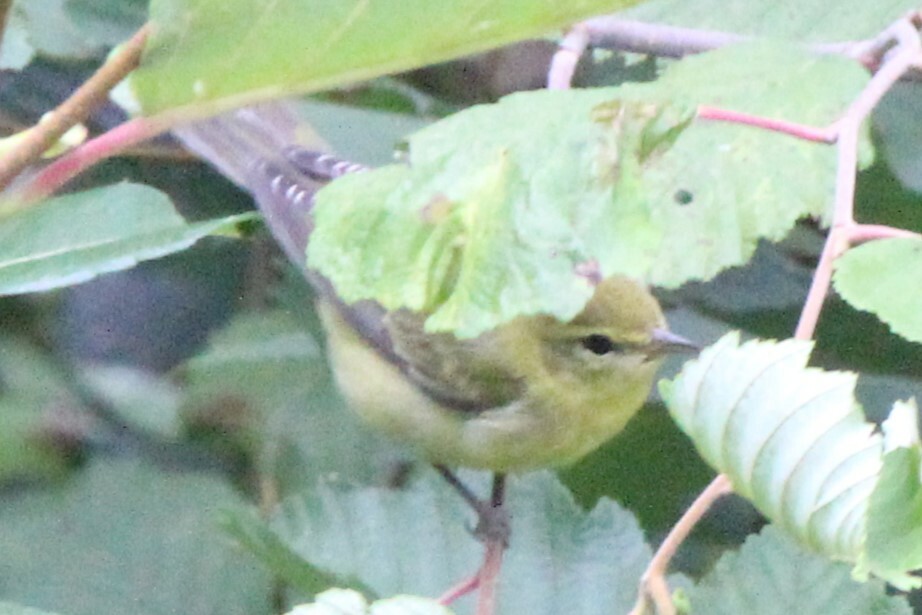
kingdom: Animalia
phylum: Chordata
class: Aves
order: Passeriformes
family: Parulidae
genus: Leiothlypis
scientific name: Leiothlypis peregrina
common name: Tennessee warbler
